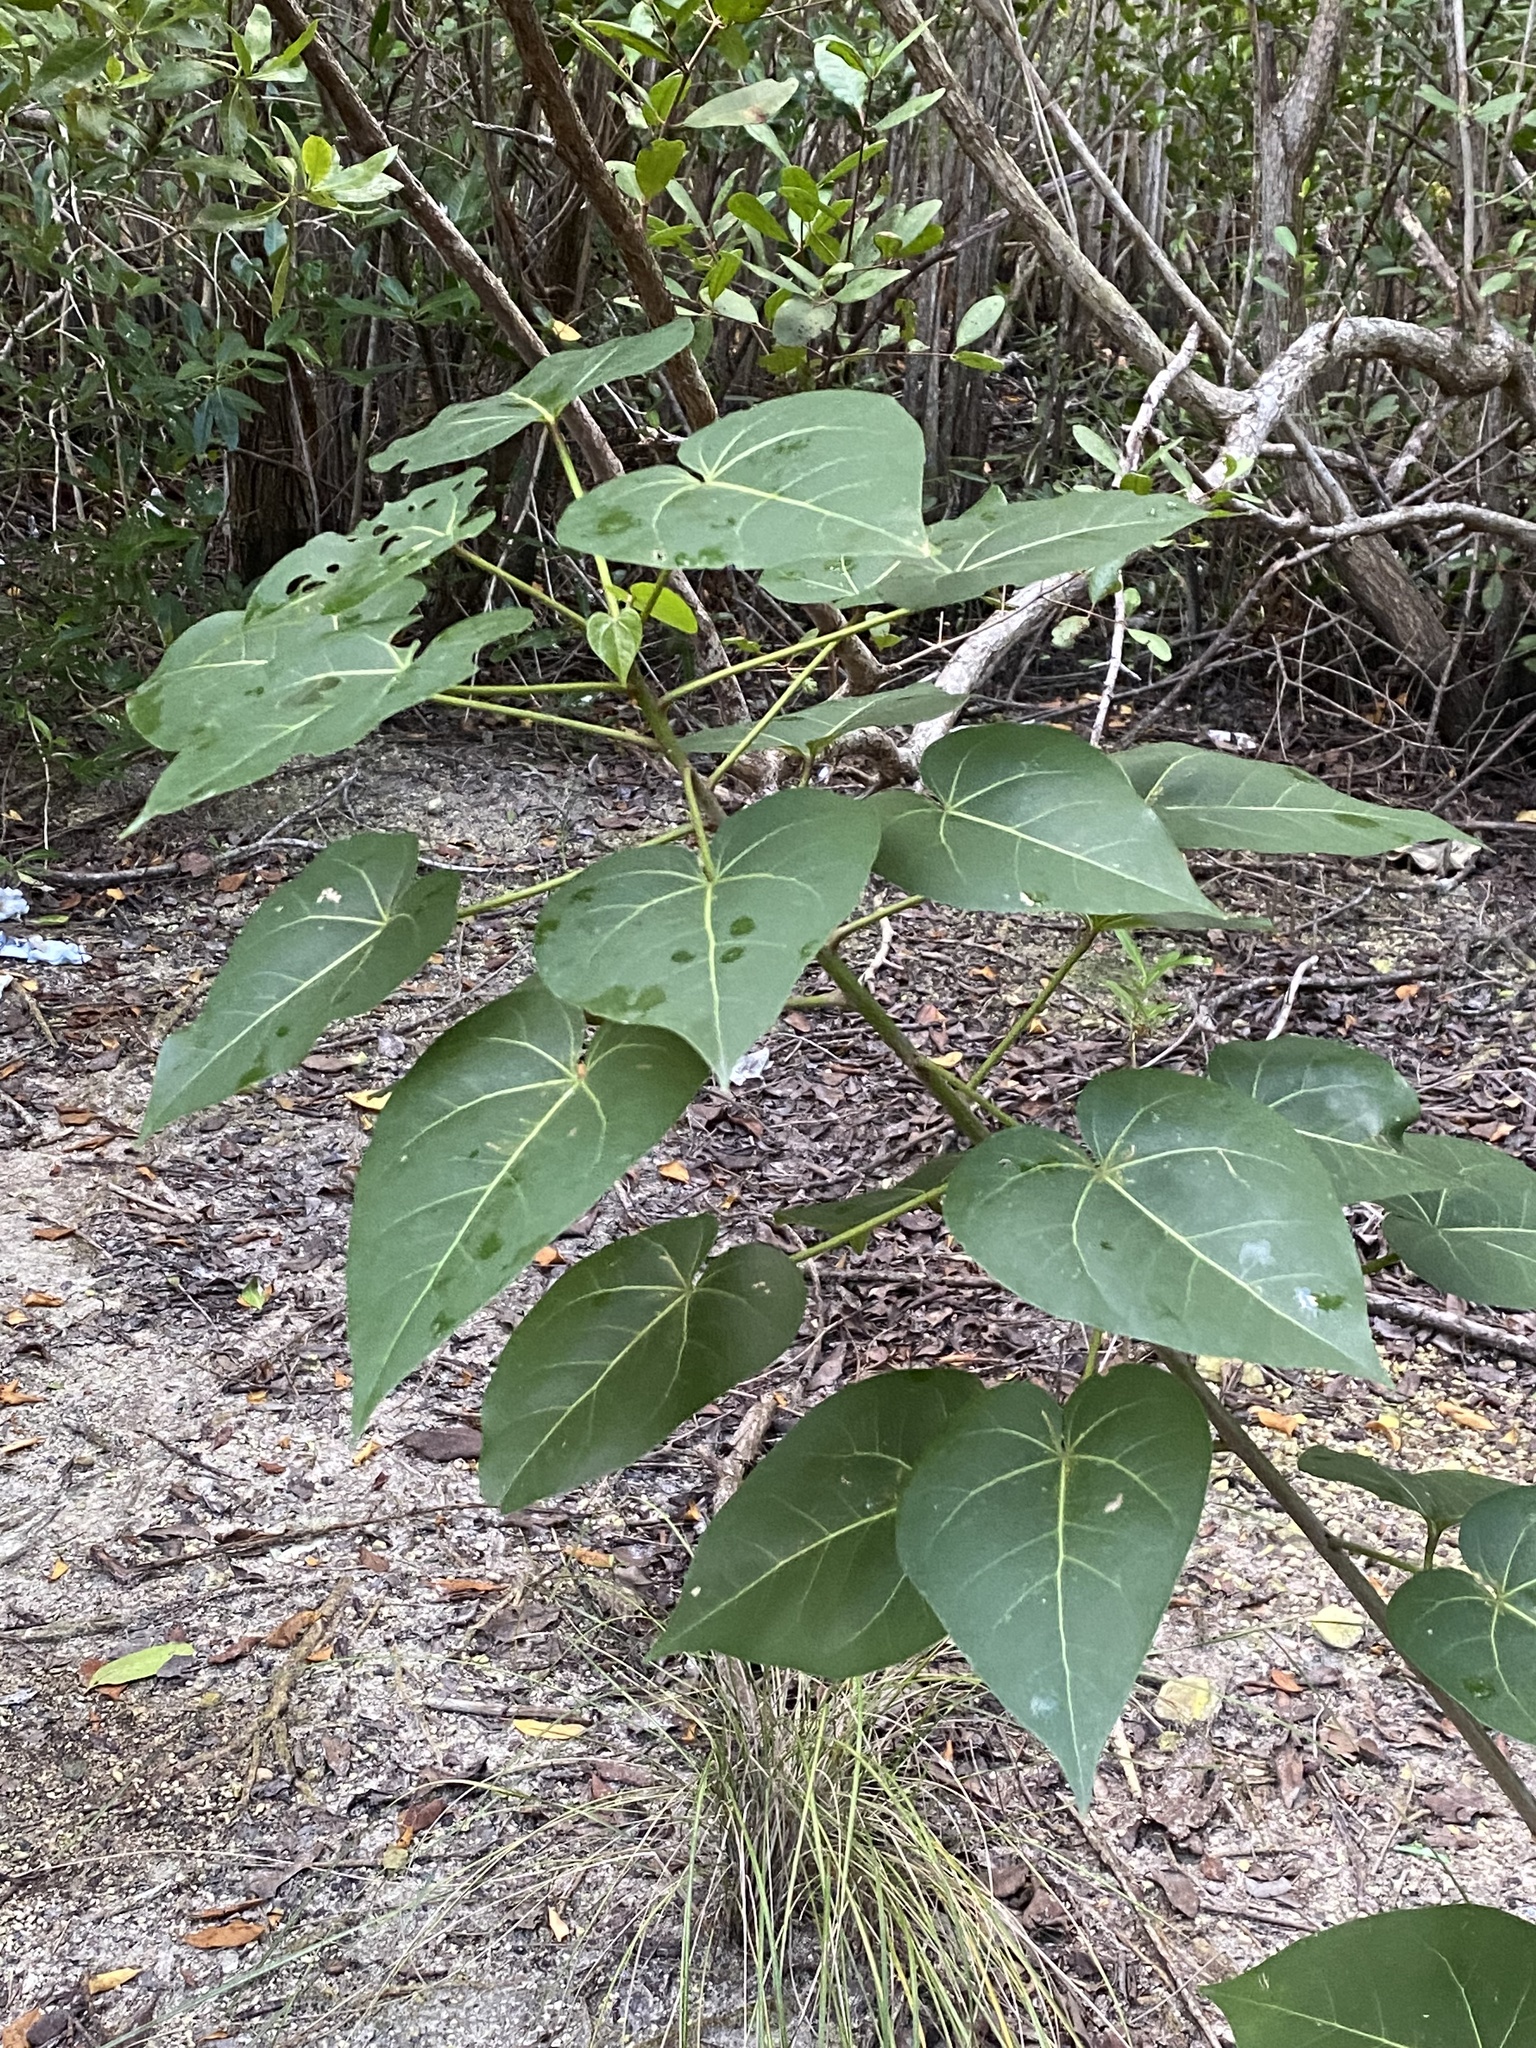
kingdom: Plantae
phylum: Tracheophyta
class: Magnoliopsida
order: Malvales
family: Malvaceae
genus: Thespesia
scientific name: Thespesia populnea
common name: Seaside mahoe
